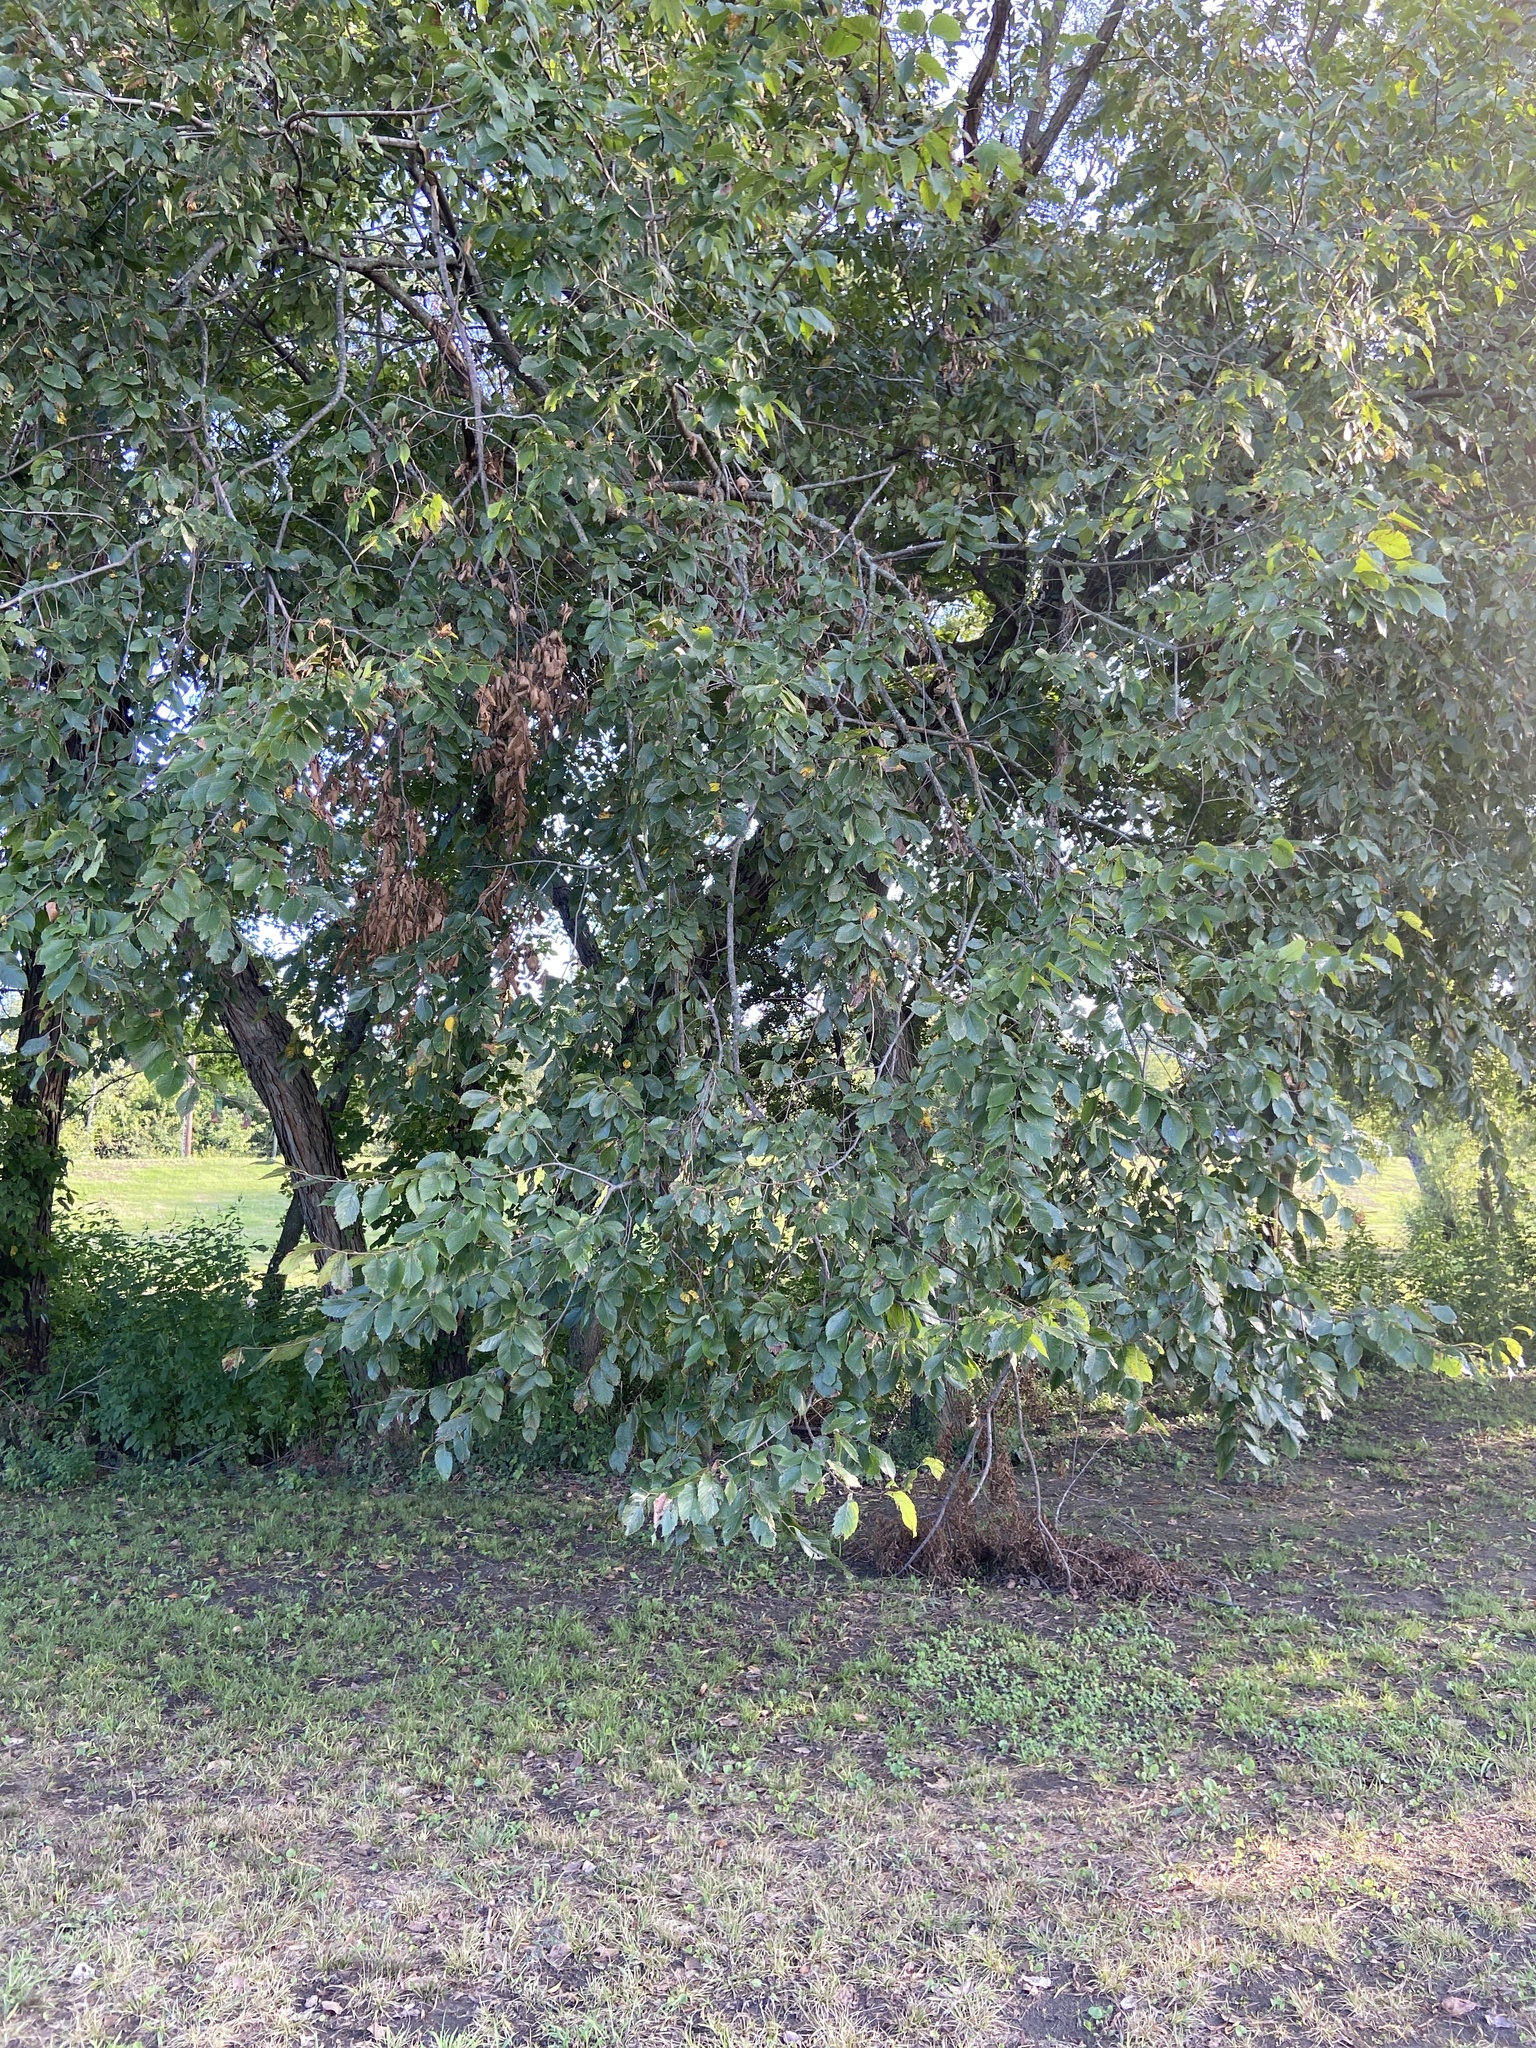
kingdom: Plantae
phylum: Tracheophyta
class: Magnoliopsida
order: Rosales
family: Ulmaceae
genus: Ulmus
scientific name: Ulmus americana
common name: American elm
